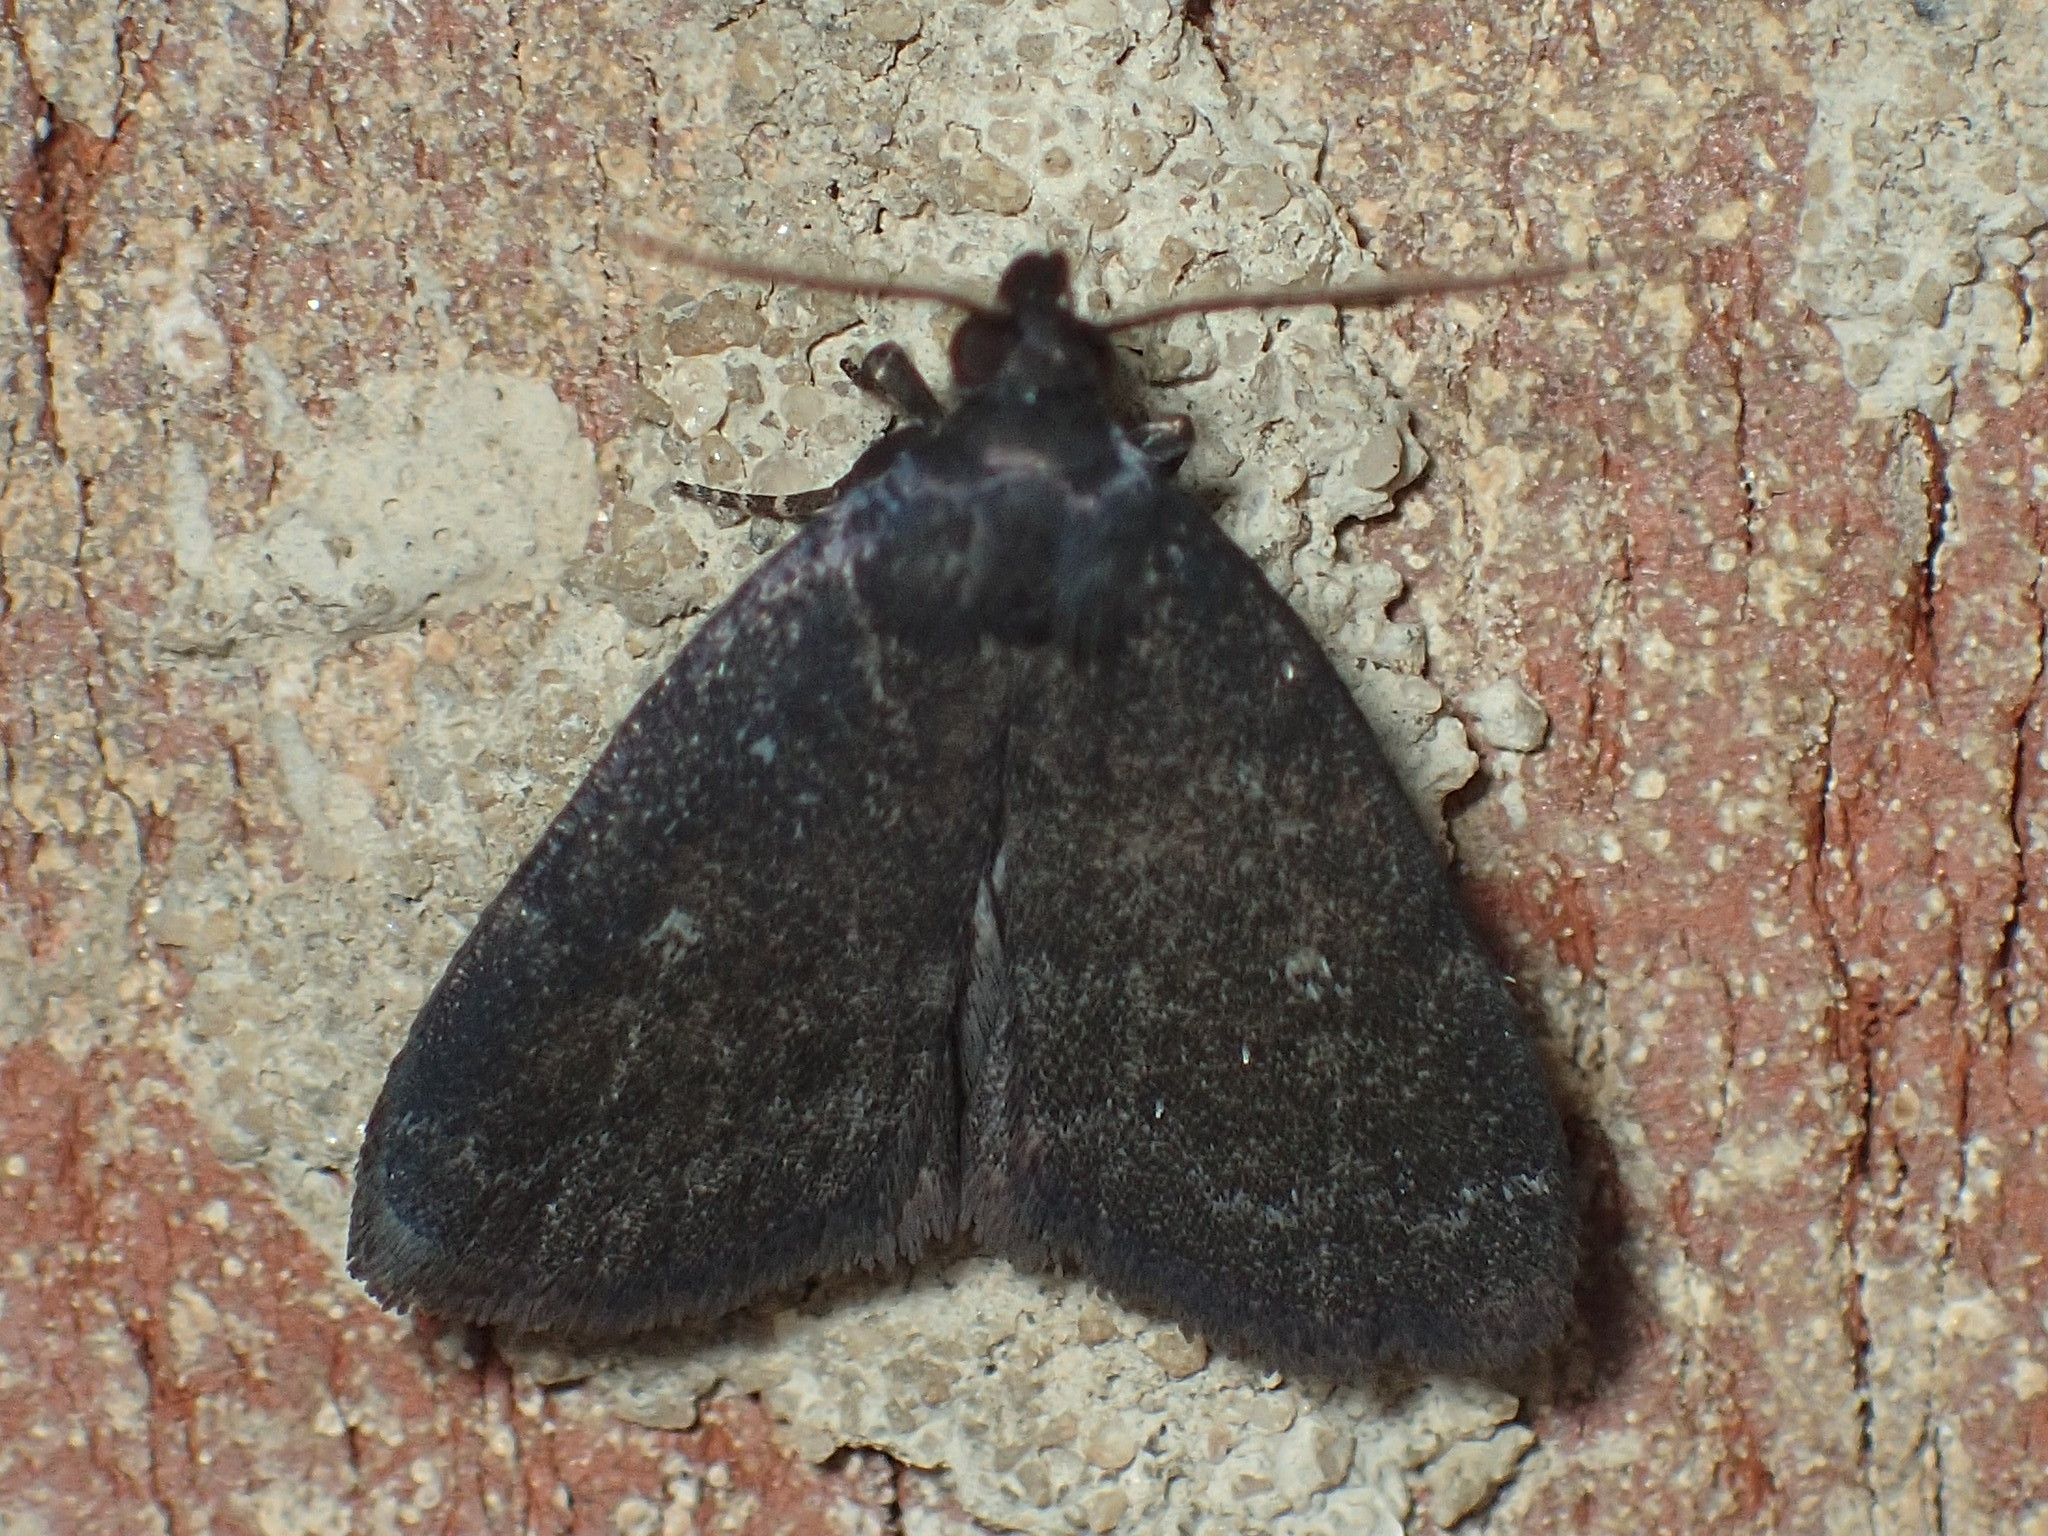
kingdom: Animalia
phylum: Arthropoda
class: Insecta
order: Lepidoptera
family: Erebidae
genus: Idia
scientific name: Idia rotundalis
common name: Rotund idia moth
